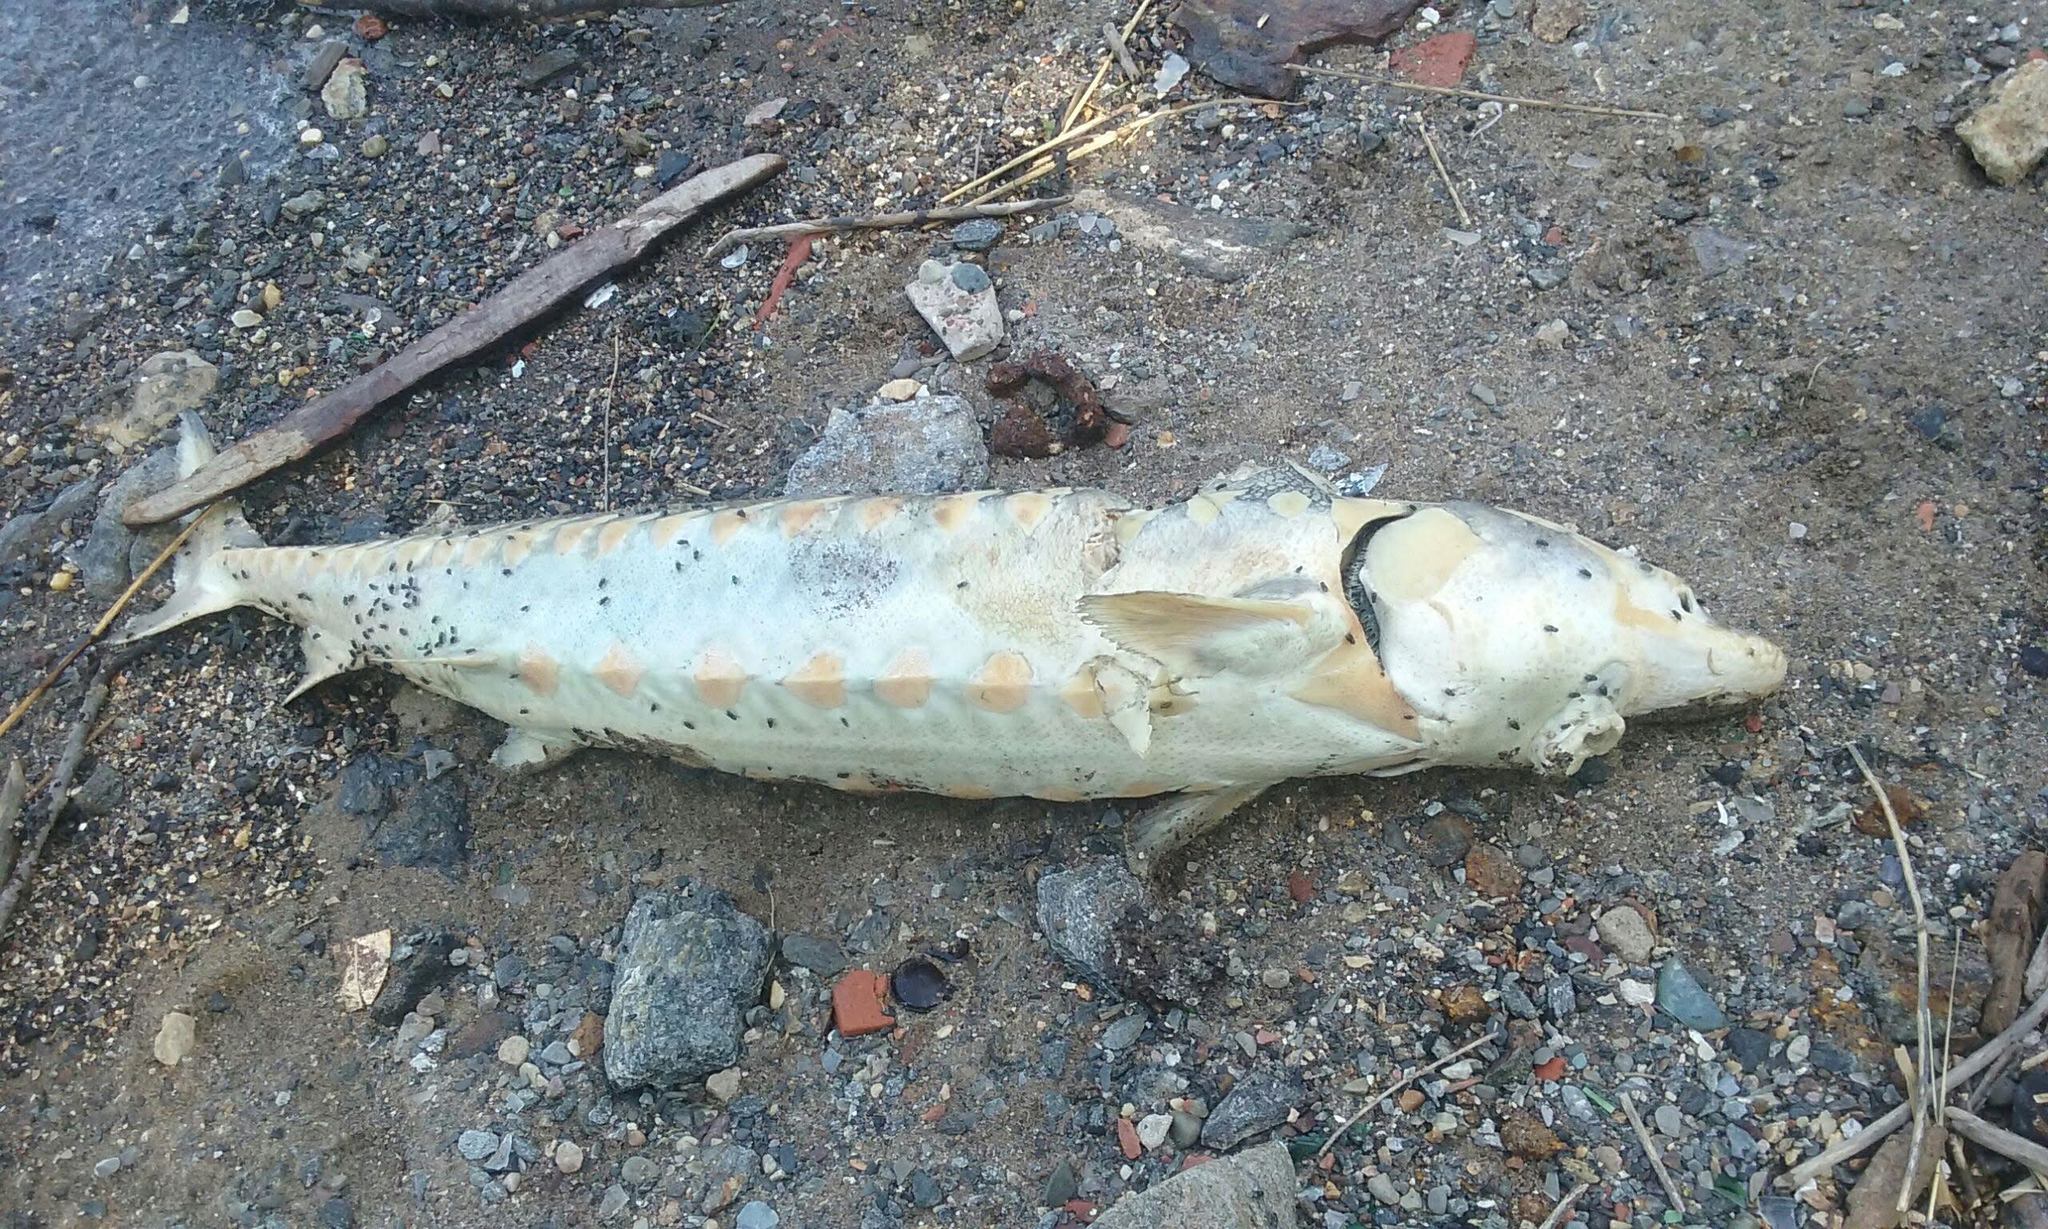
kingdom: Animalia
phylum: Chordata
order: Acipenseriformes
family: Acipenseridae
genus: Acipenser
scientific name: Acipenser brevirostrum
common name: Shortnose sturgeon
